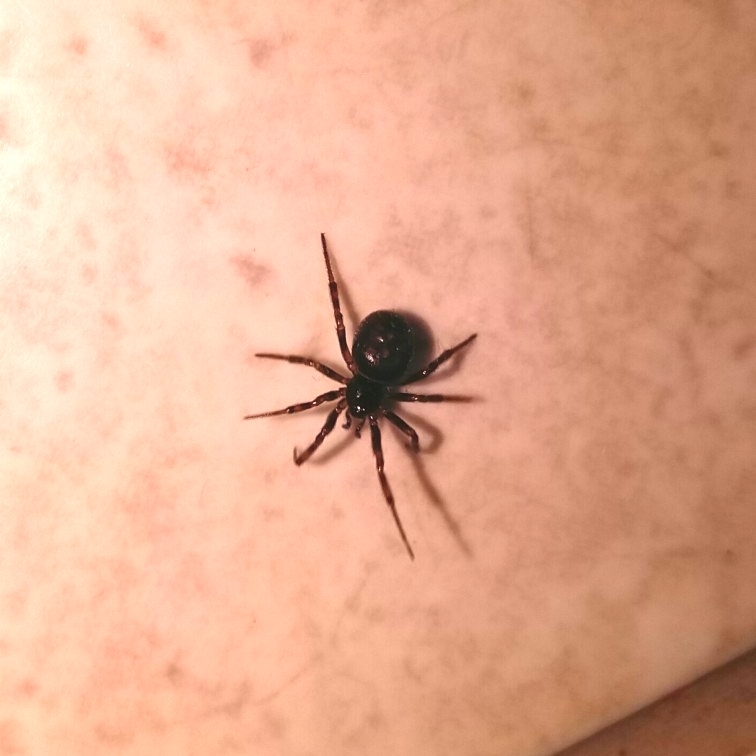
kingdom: Animalia
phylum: Arthropoda
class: Arachnida
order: Araneae
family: Theridiidae
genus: Steatoda
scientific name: Steatoda bipunctata
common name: False widow
